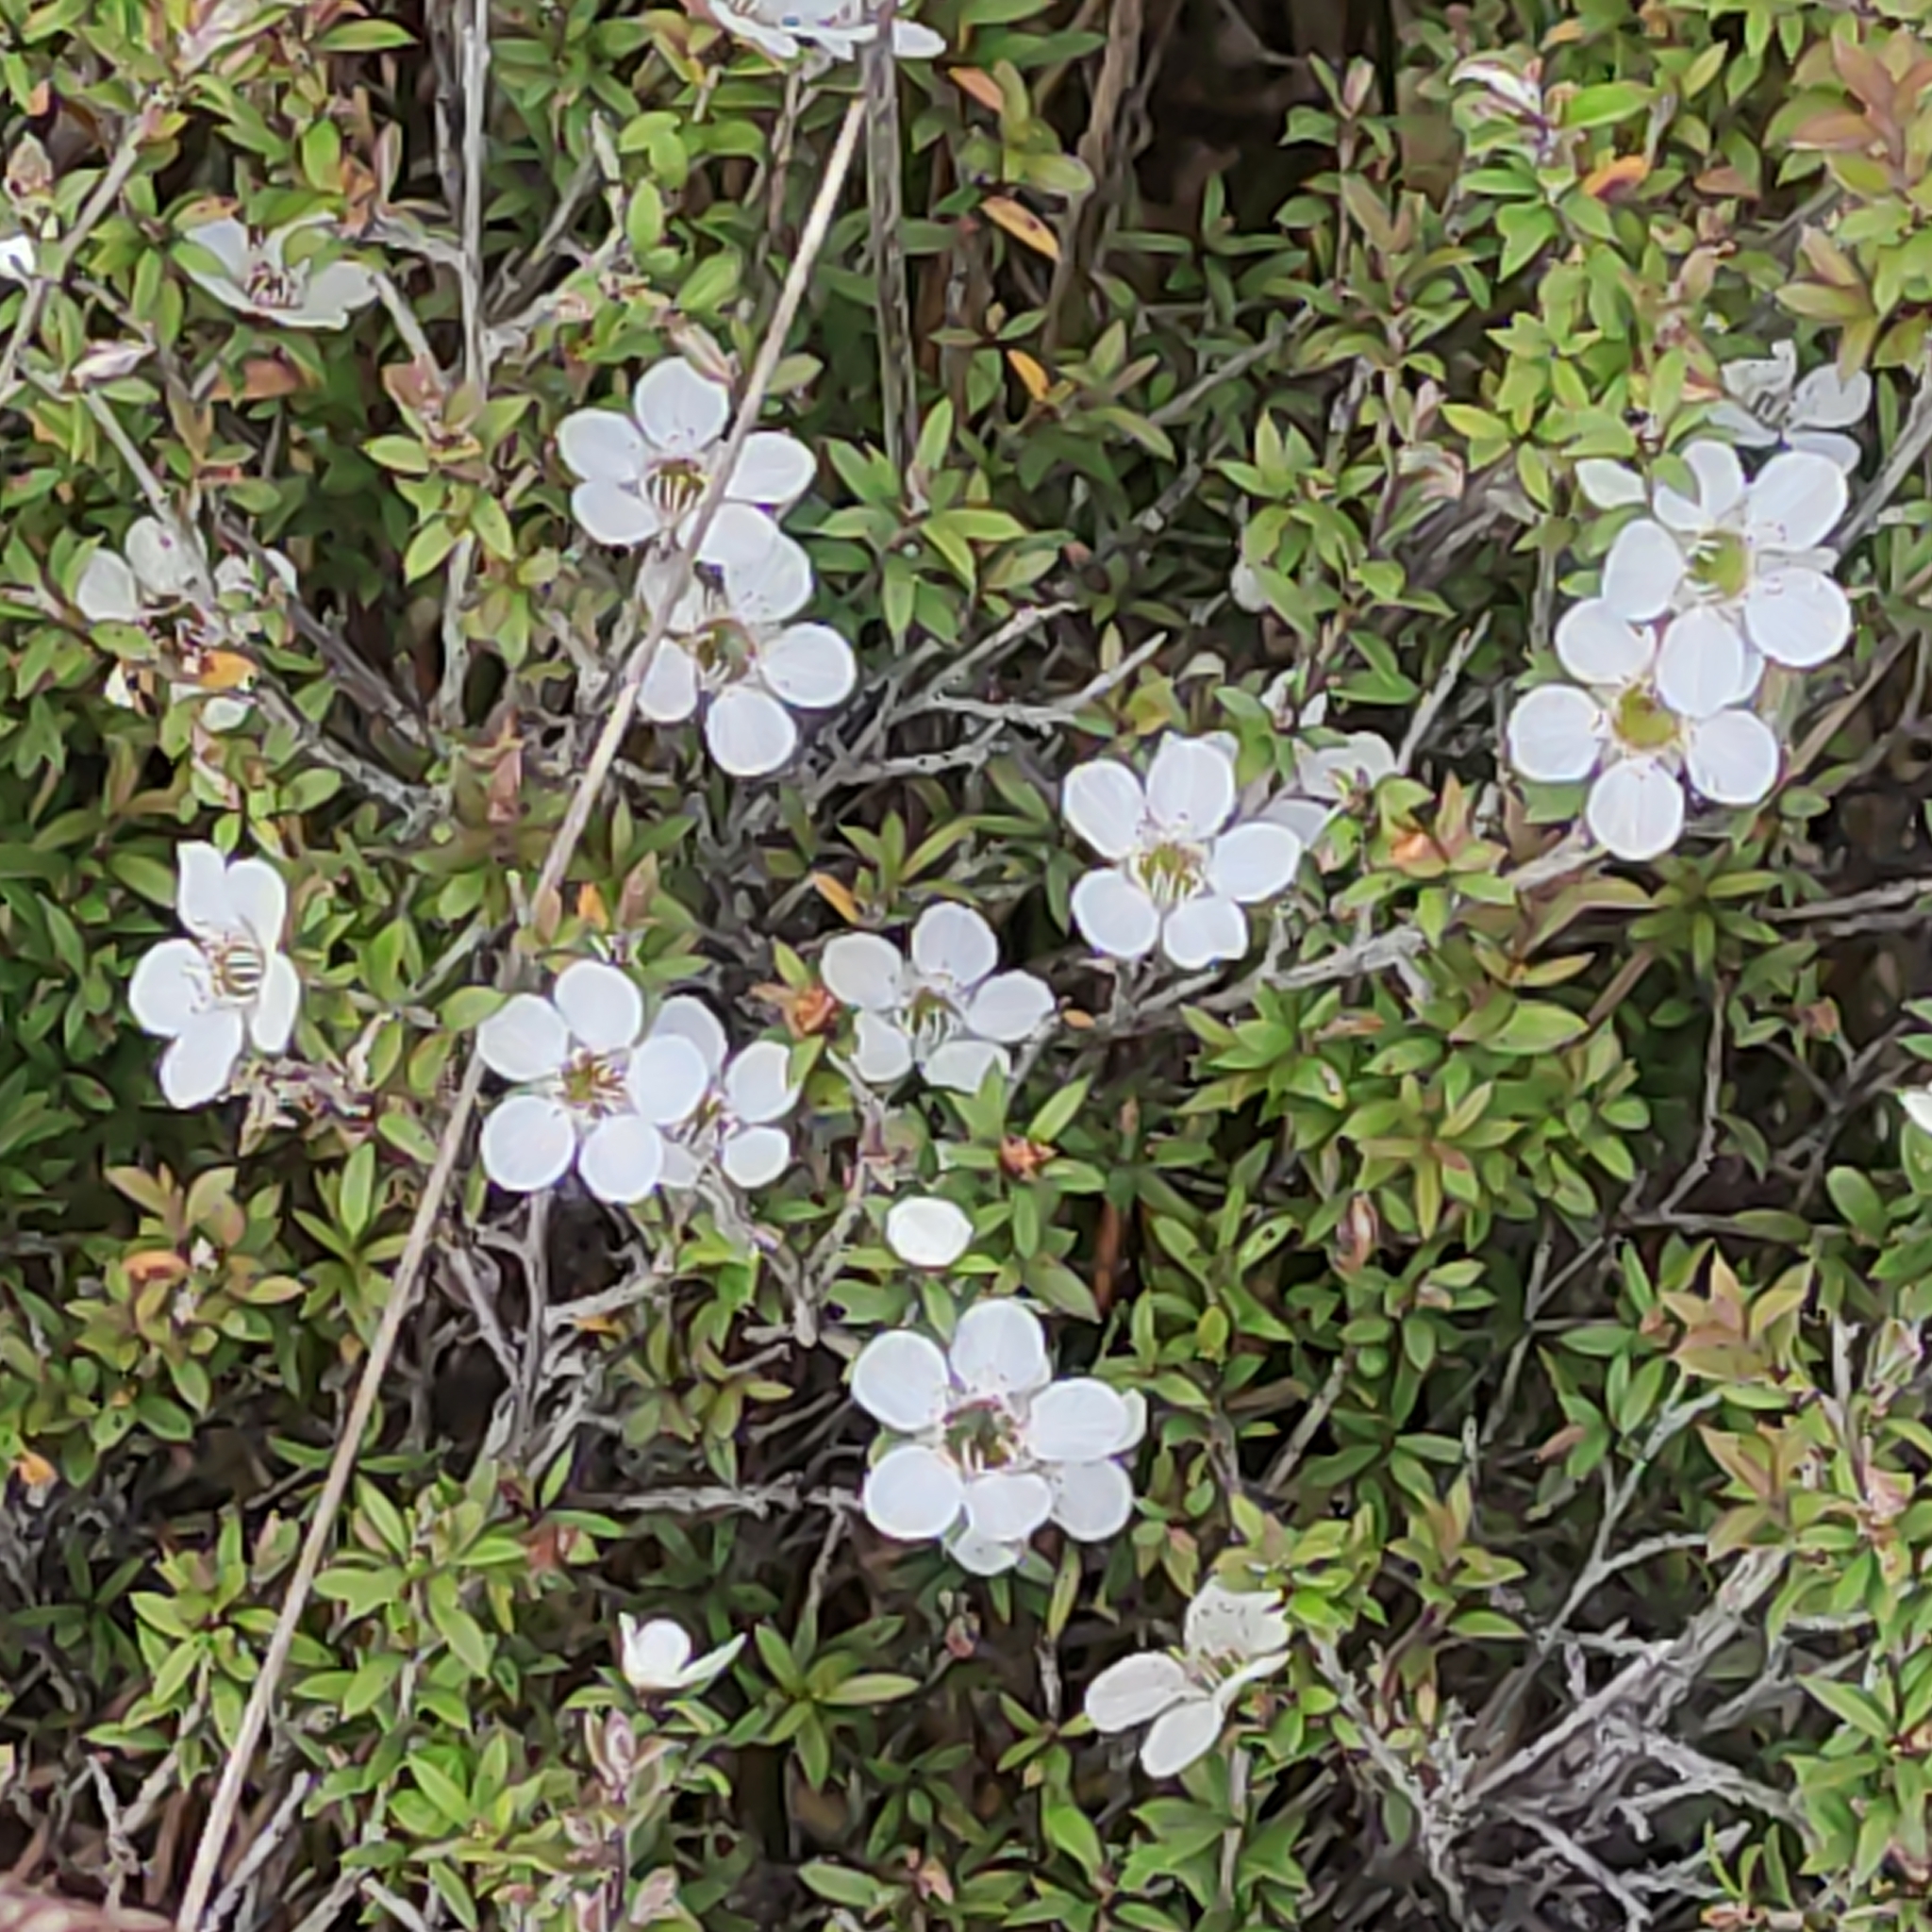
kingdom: Plantae
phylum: Tracheophyta
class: Magnoliopsida
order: Myrtales
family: Myrtaceae
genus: Leptospermum
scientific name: Leptospermum scoparium
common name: Broom tea-tree
